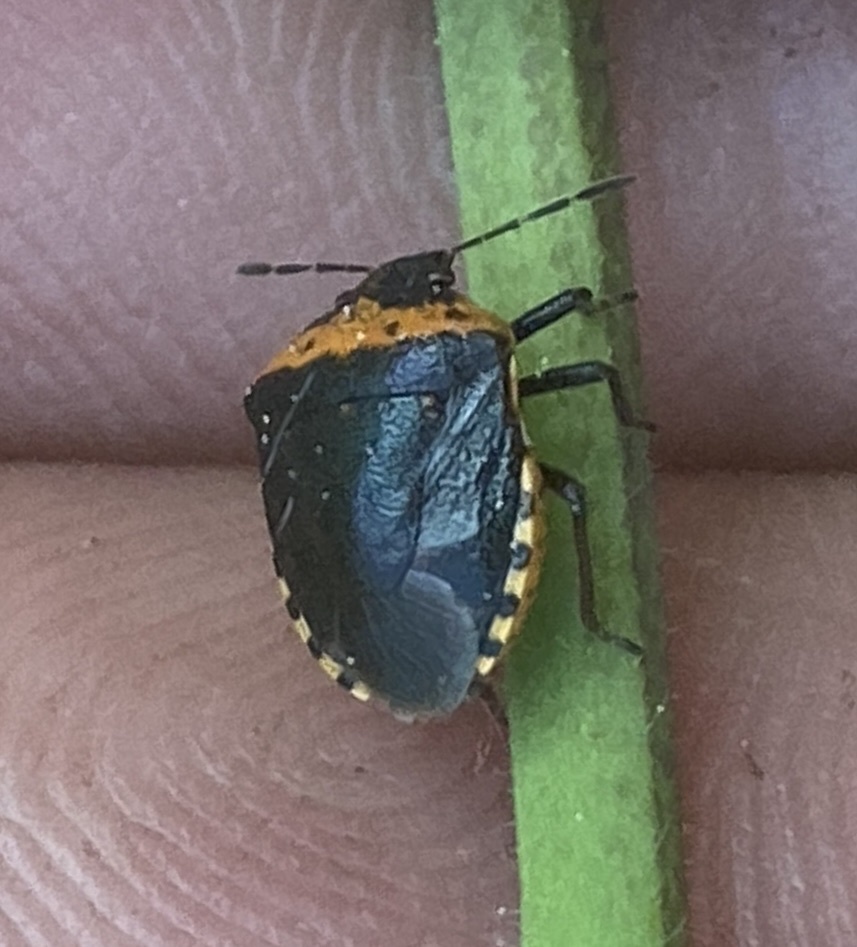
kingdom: Animalia
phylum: Arthropoda
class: Insecta
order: Hemiptera
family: Pentatomidae
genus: Cosmopepla
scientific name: Cosmopepla uhleri
